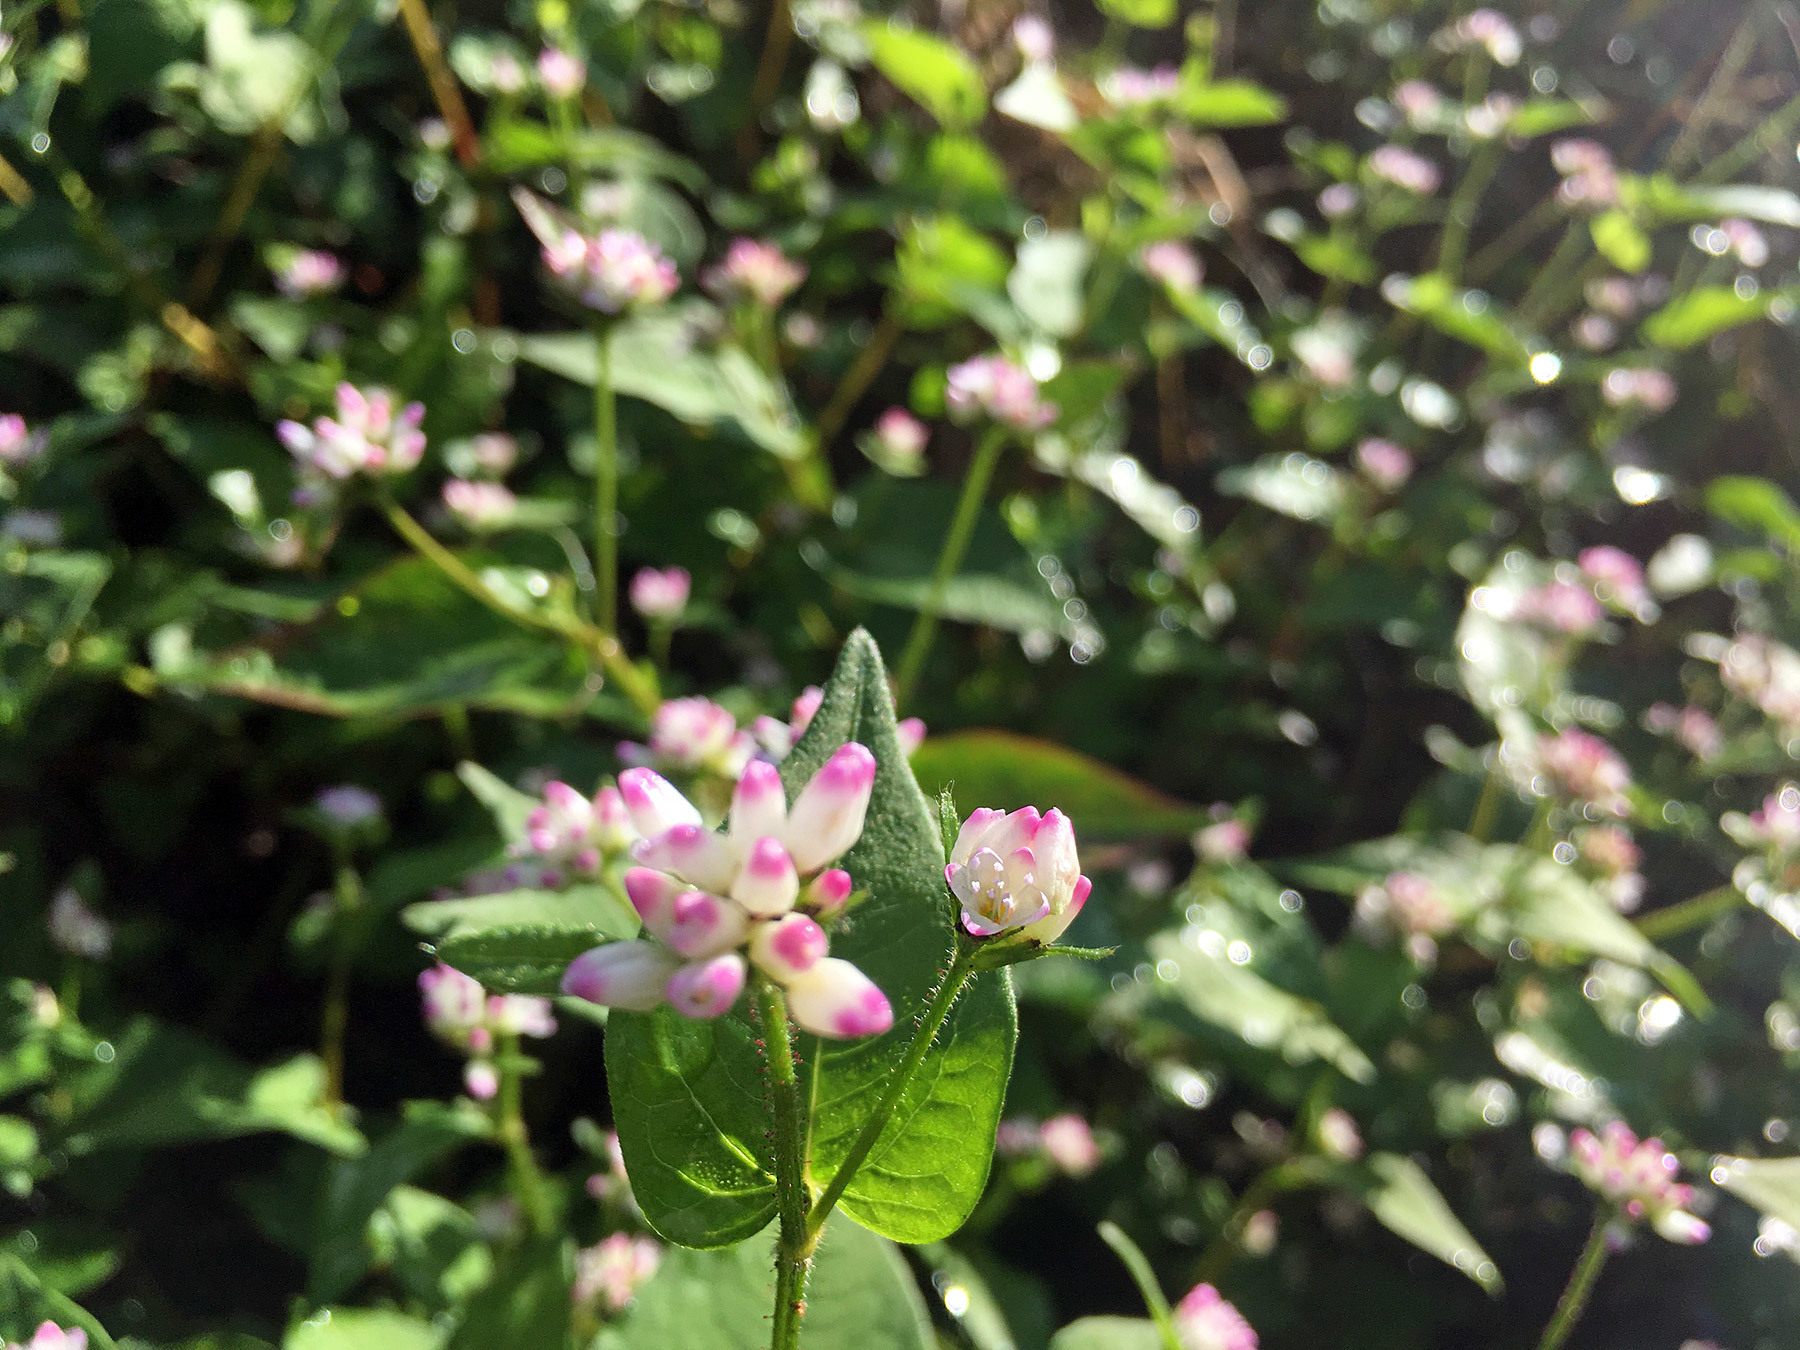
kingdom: Plantae
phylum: Tracheophyta
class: Magnoliopsida
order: Caryophyllales
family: Polygonaceae
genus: Persicaria
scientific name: Persicaria thunbergii
